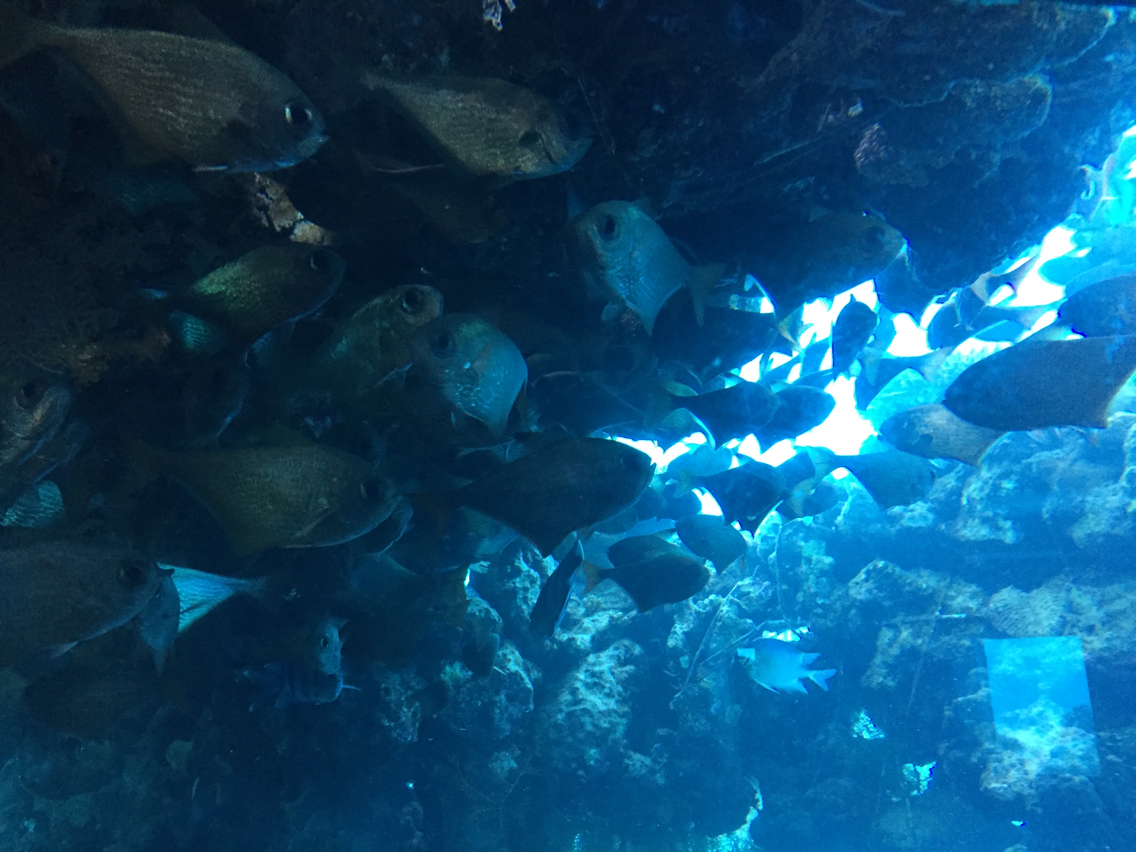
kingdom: Animalia
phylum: Chordata
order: Perciformes
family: Pempheridae
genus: Pempheris
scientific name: Pempheris oualensis
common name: Bronze sweeper
